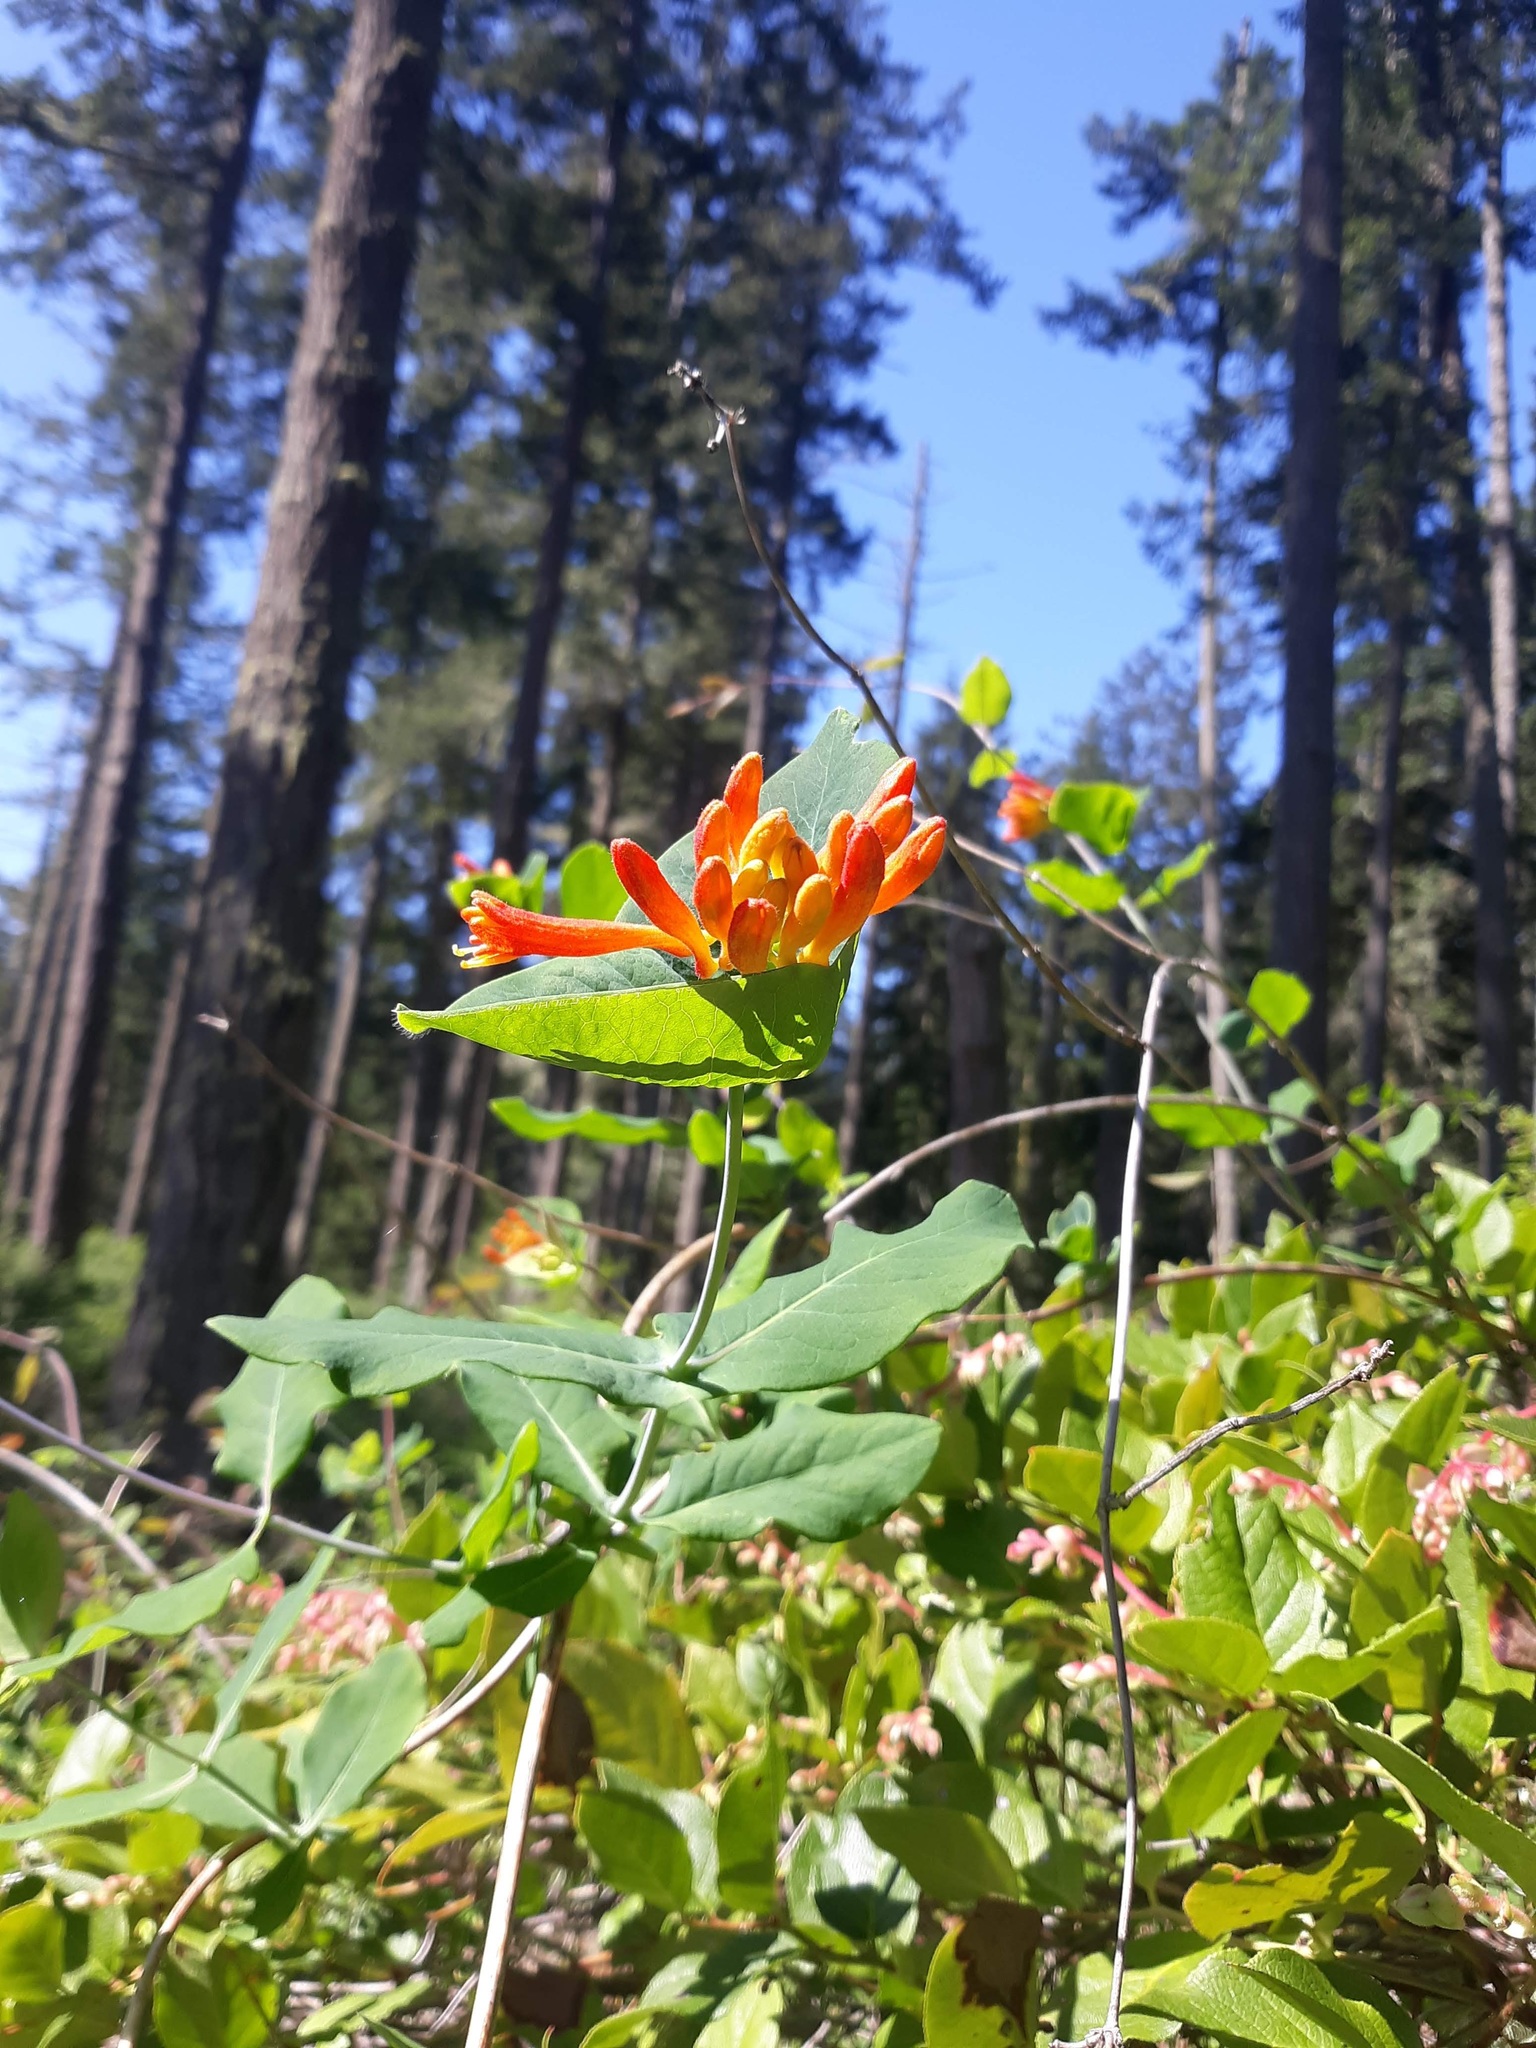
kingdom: Plantae
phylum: Tracheophyta
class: Magnoliopsida
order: Dipsacales
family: Caprifoliaceae
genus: Lonicera
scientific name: Lonicera ciliosa
